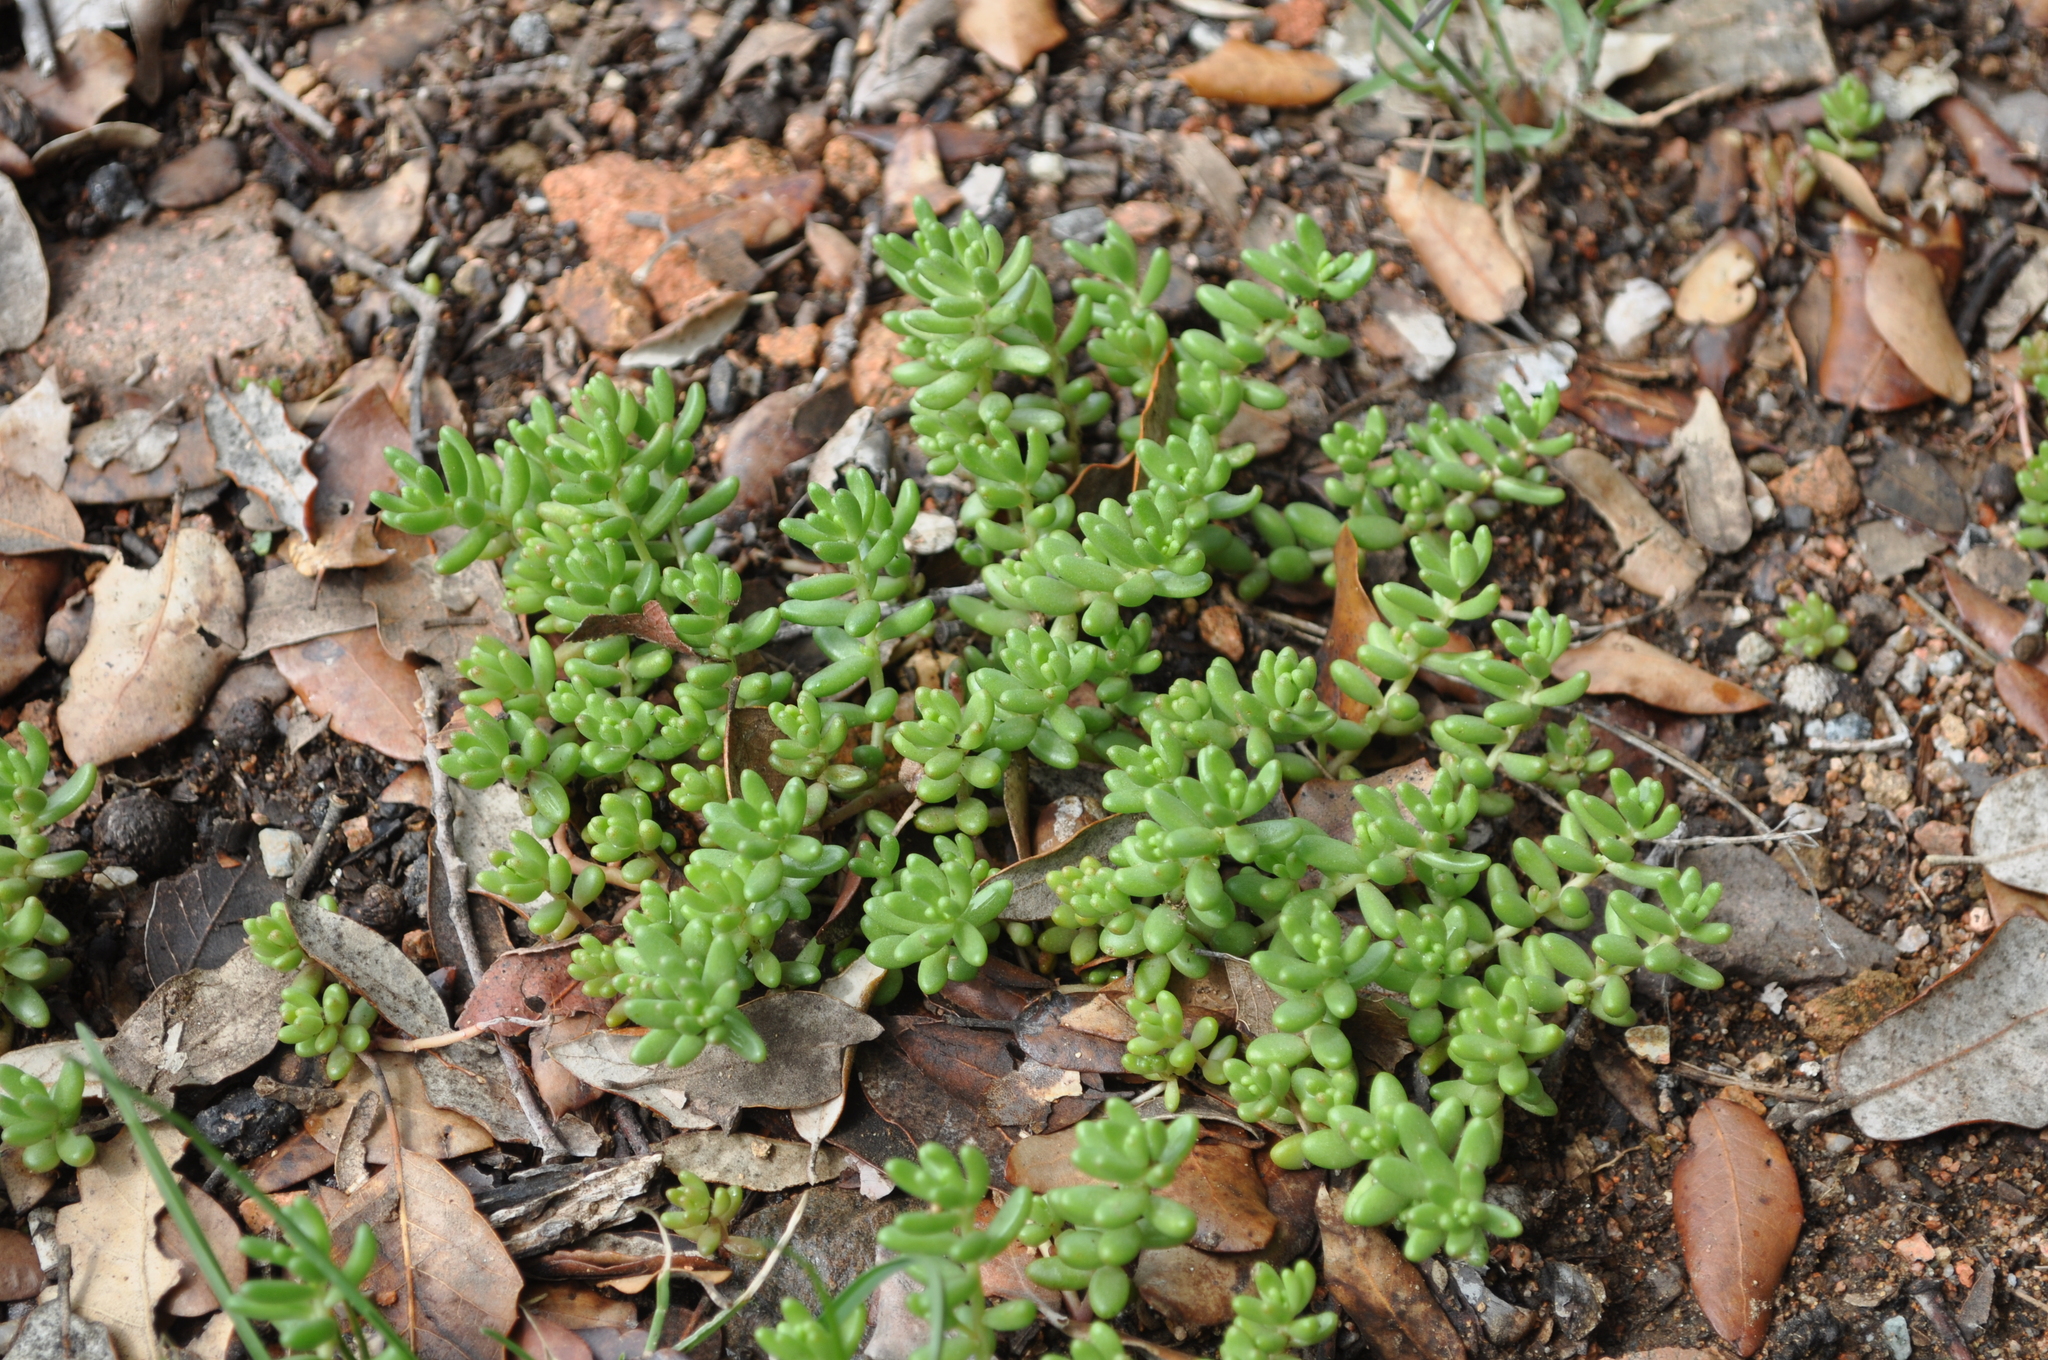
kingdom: Plantae
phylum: Tracheophyta
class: Magnoliopsida
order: Saxifragales
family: Crassulaceae
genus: Sedum
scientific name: Sedum album
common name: White stonecrop
